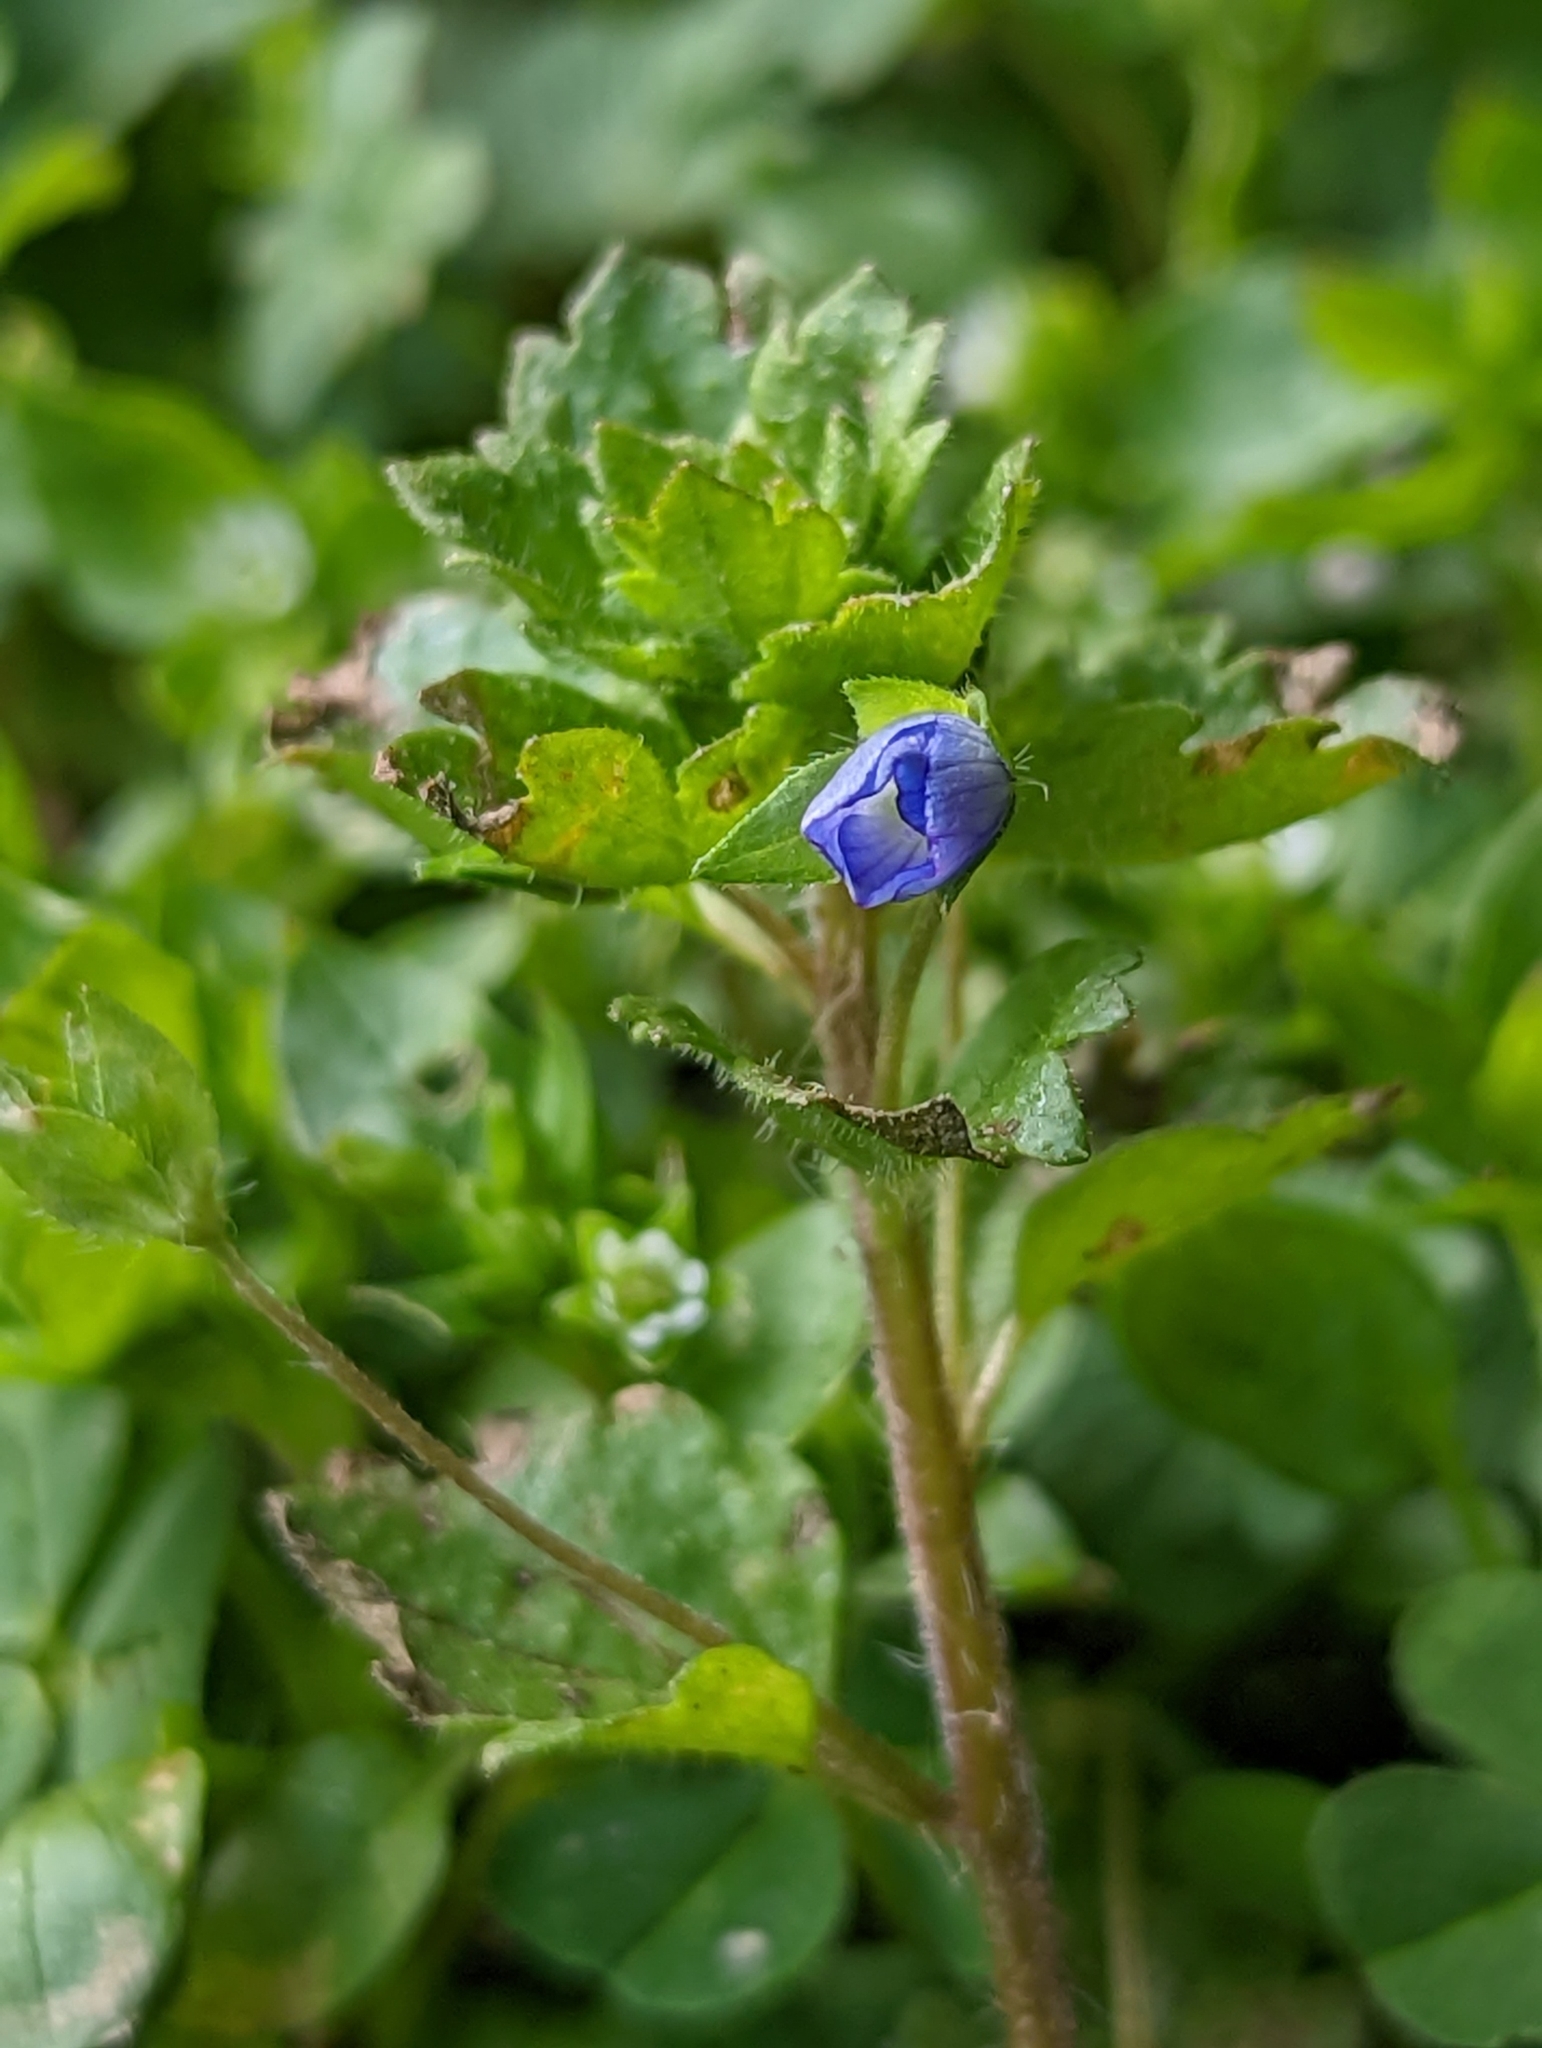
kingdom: Plantae
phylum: Tracheophyta
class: Magnoliopsida
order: Lamiales
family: Plantaginaceae
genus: Veronica
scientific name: Veronica persica
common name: Common field-speedwell
